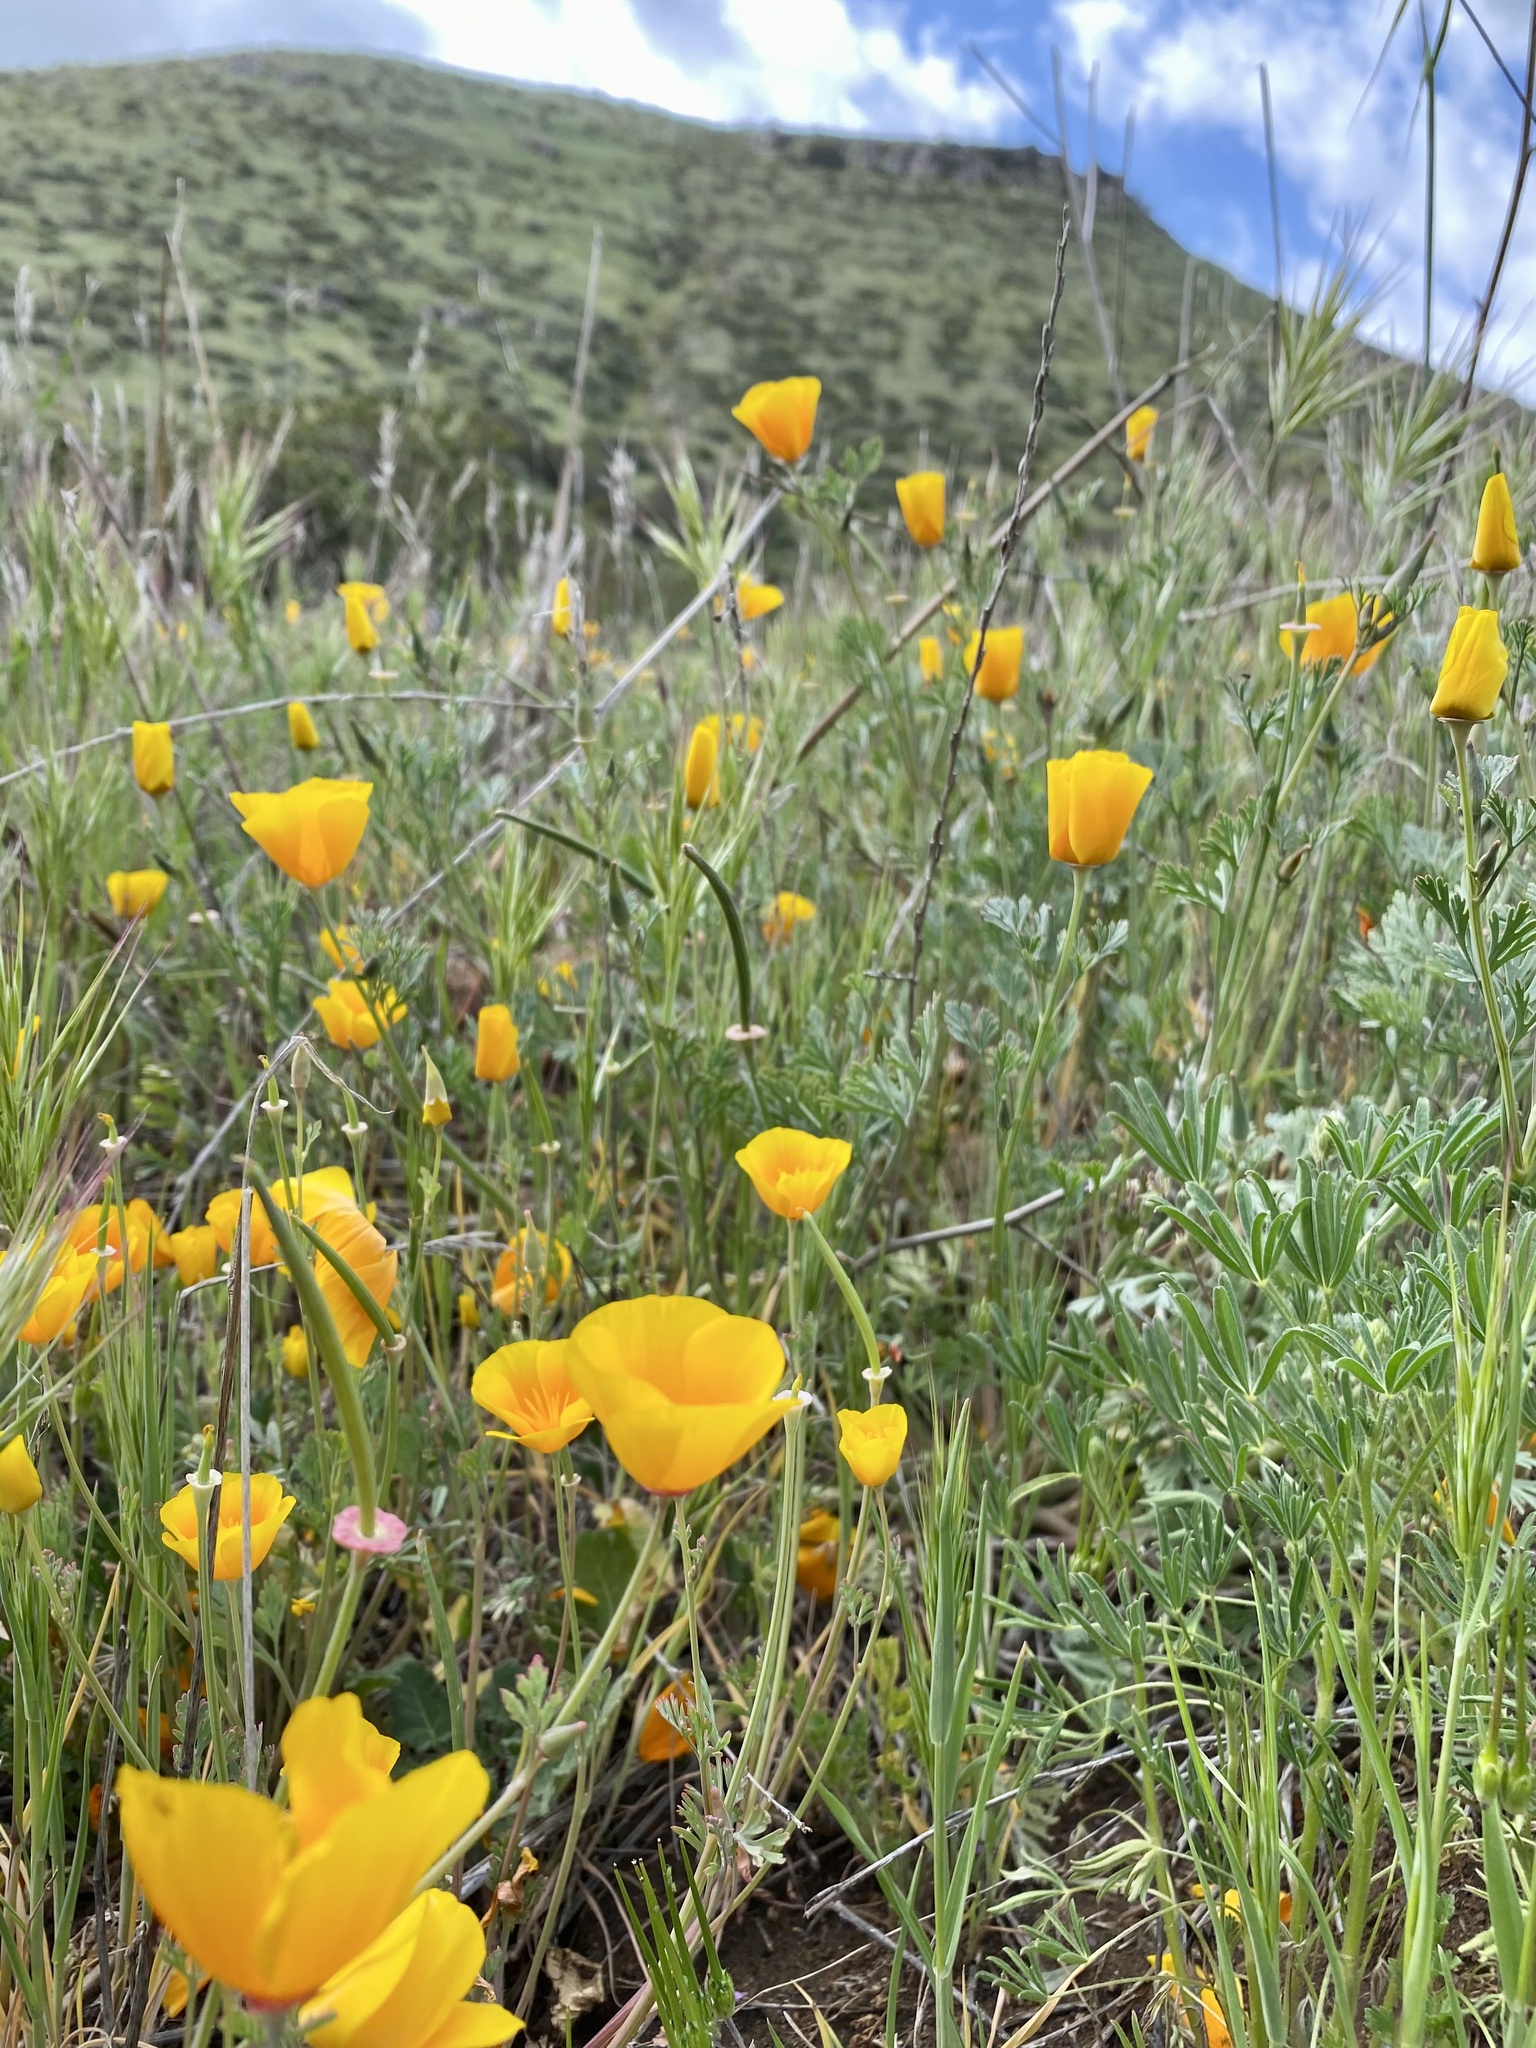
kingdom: Plantae
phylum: Tracheophyta
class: Magnoliopsida
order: Ranunculales
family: Papaveraceae
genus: Eschscholzia
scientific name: Eschscholzia californica
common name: California poppy
